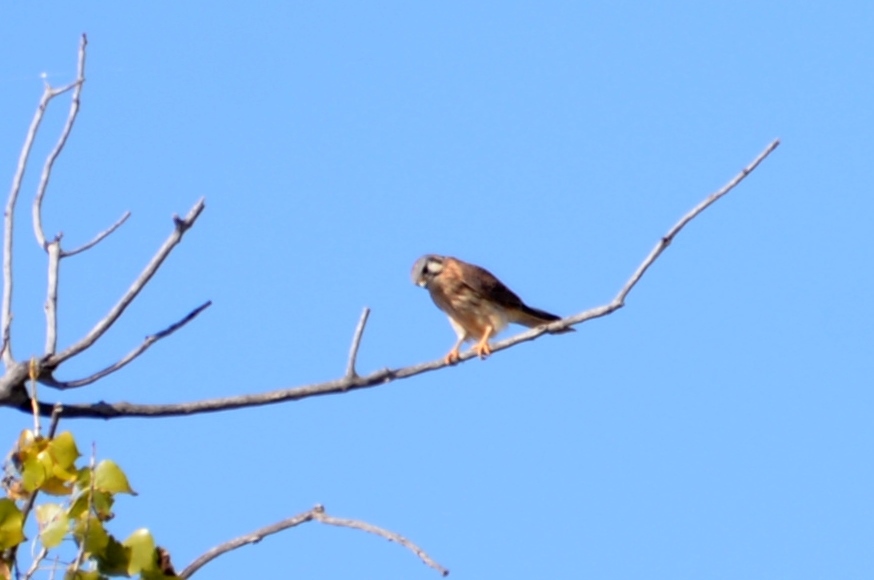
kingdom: Animalia
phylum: Chordata
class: Aves
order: Falconiformes
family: Falconidae
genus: Falco
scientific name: Falco sparverius
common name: American kestrel
